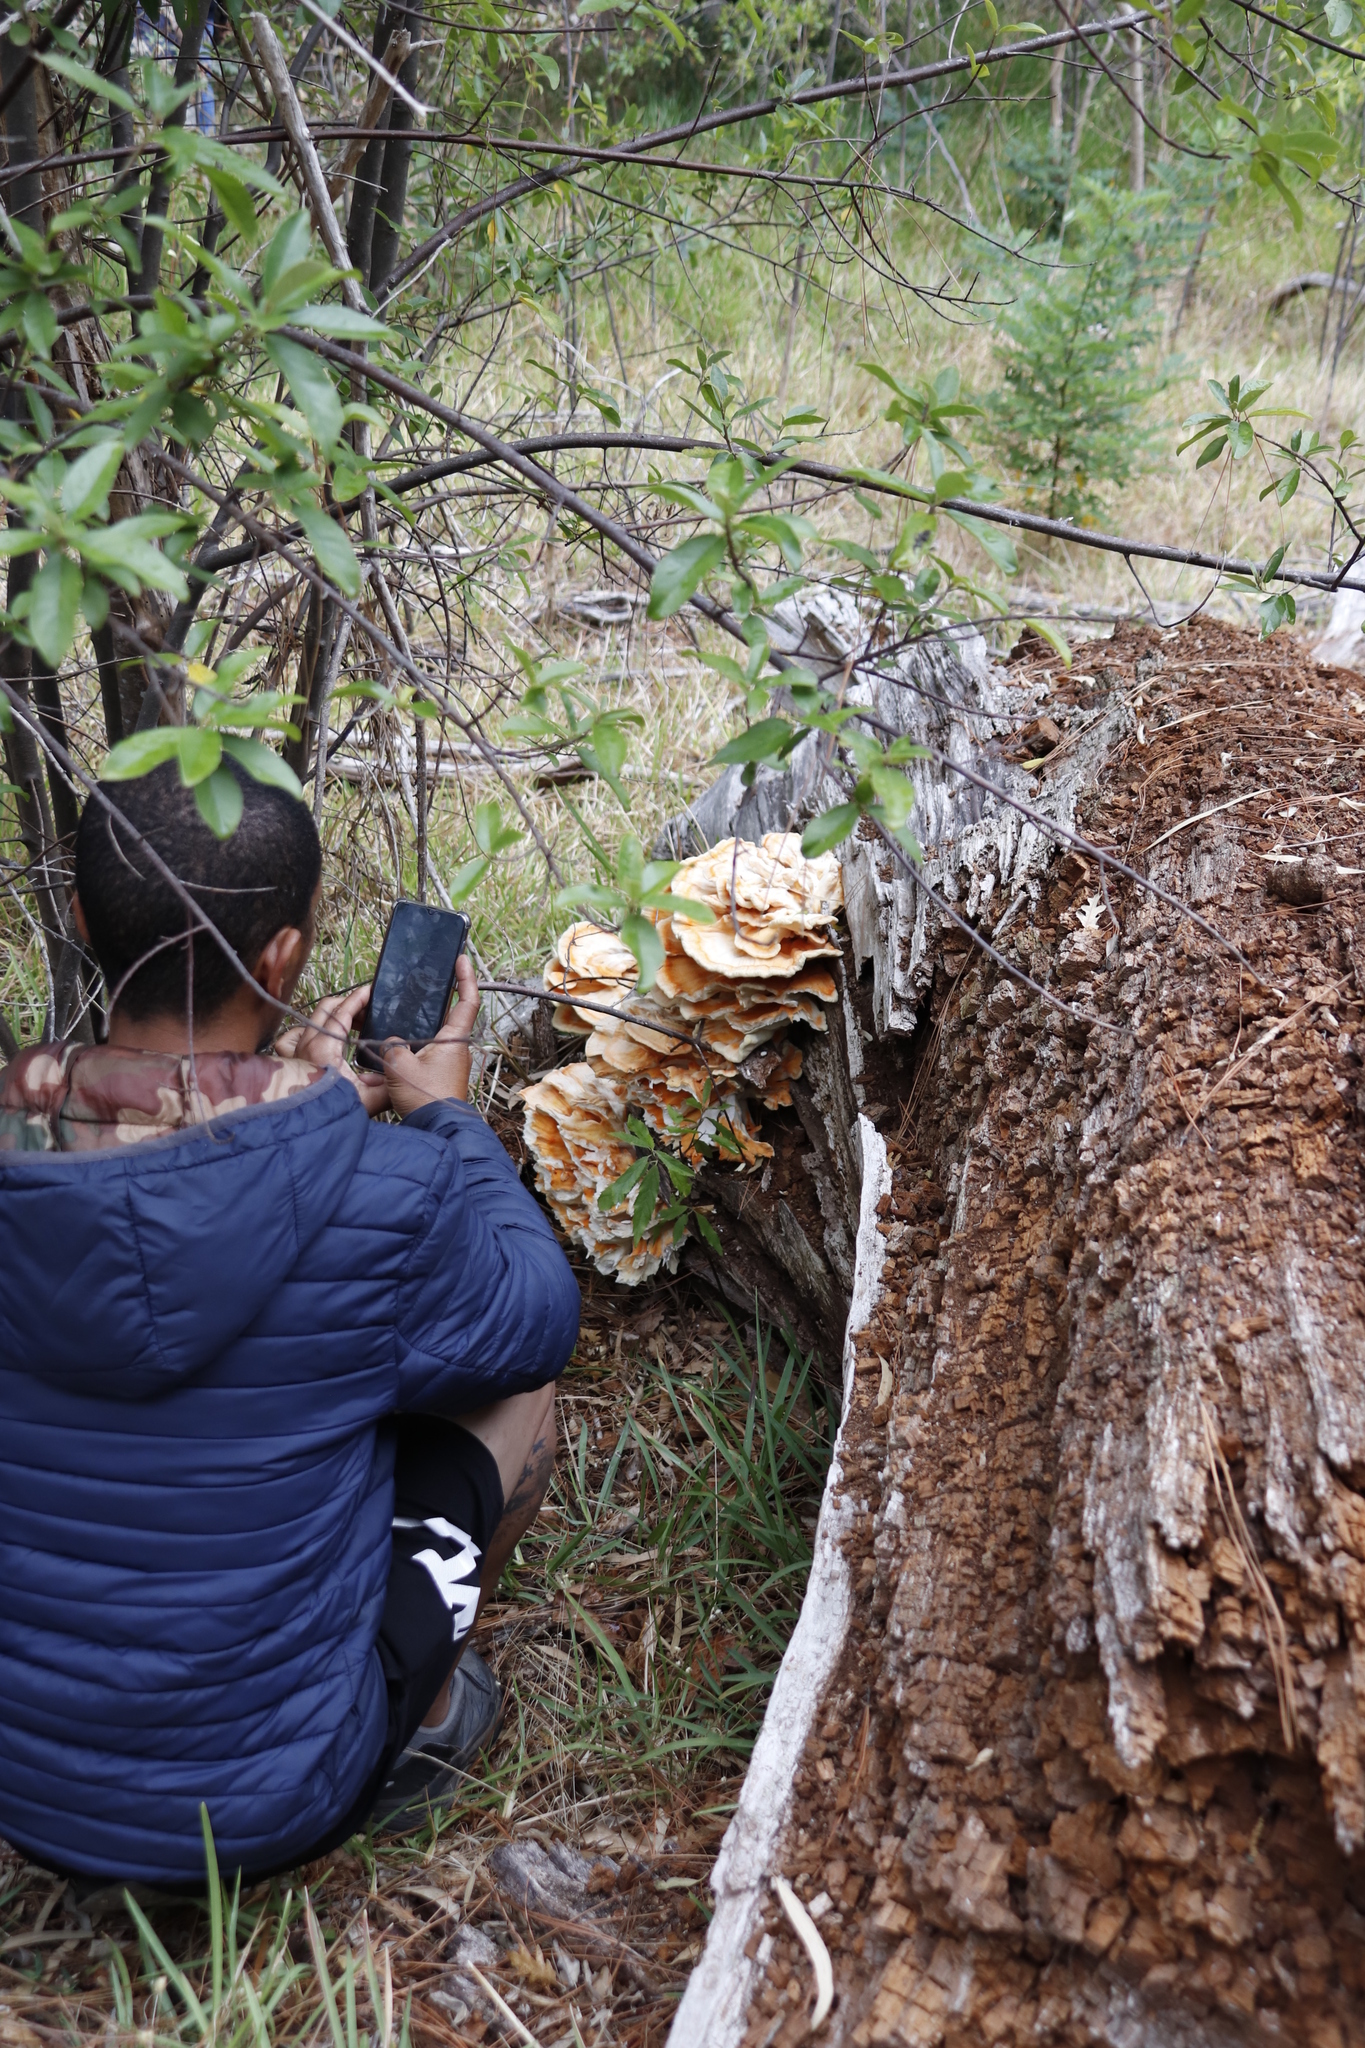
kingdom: Fungi
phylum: Basidiomycota
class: Agaricomycetes
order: Polyporales
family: Laetiporaceae
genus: Laetiporus
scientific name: Laetiporus sulphureus
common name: Chicken of the woods
